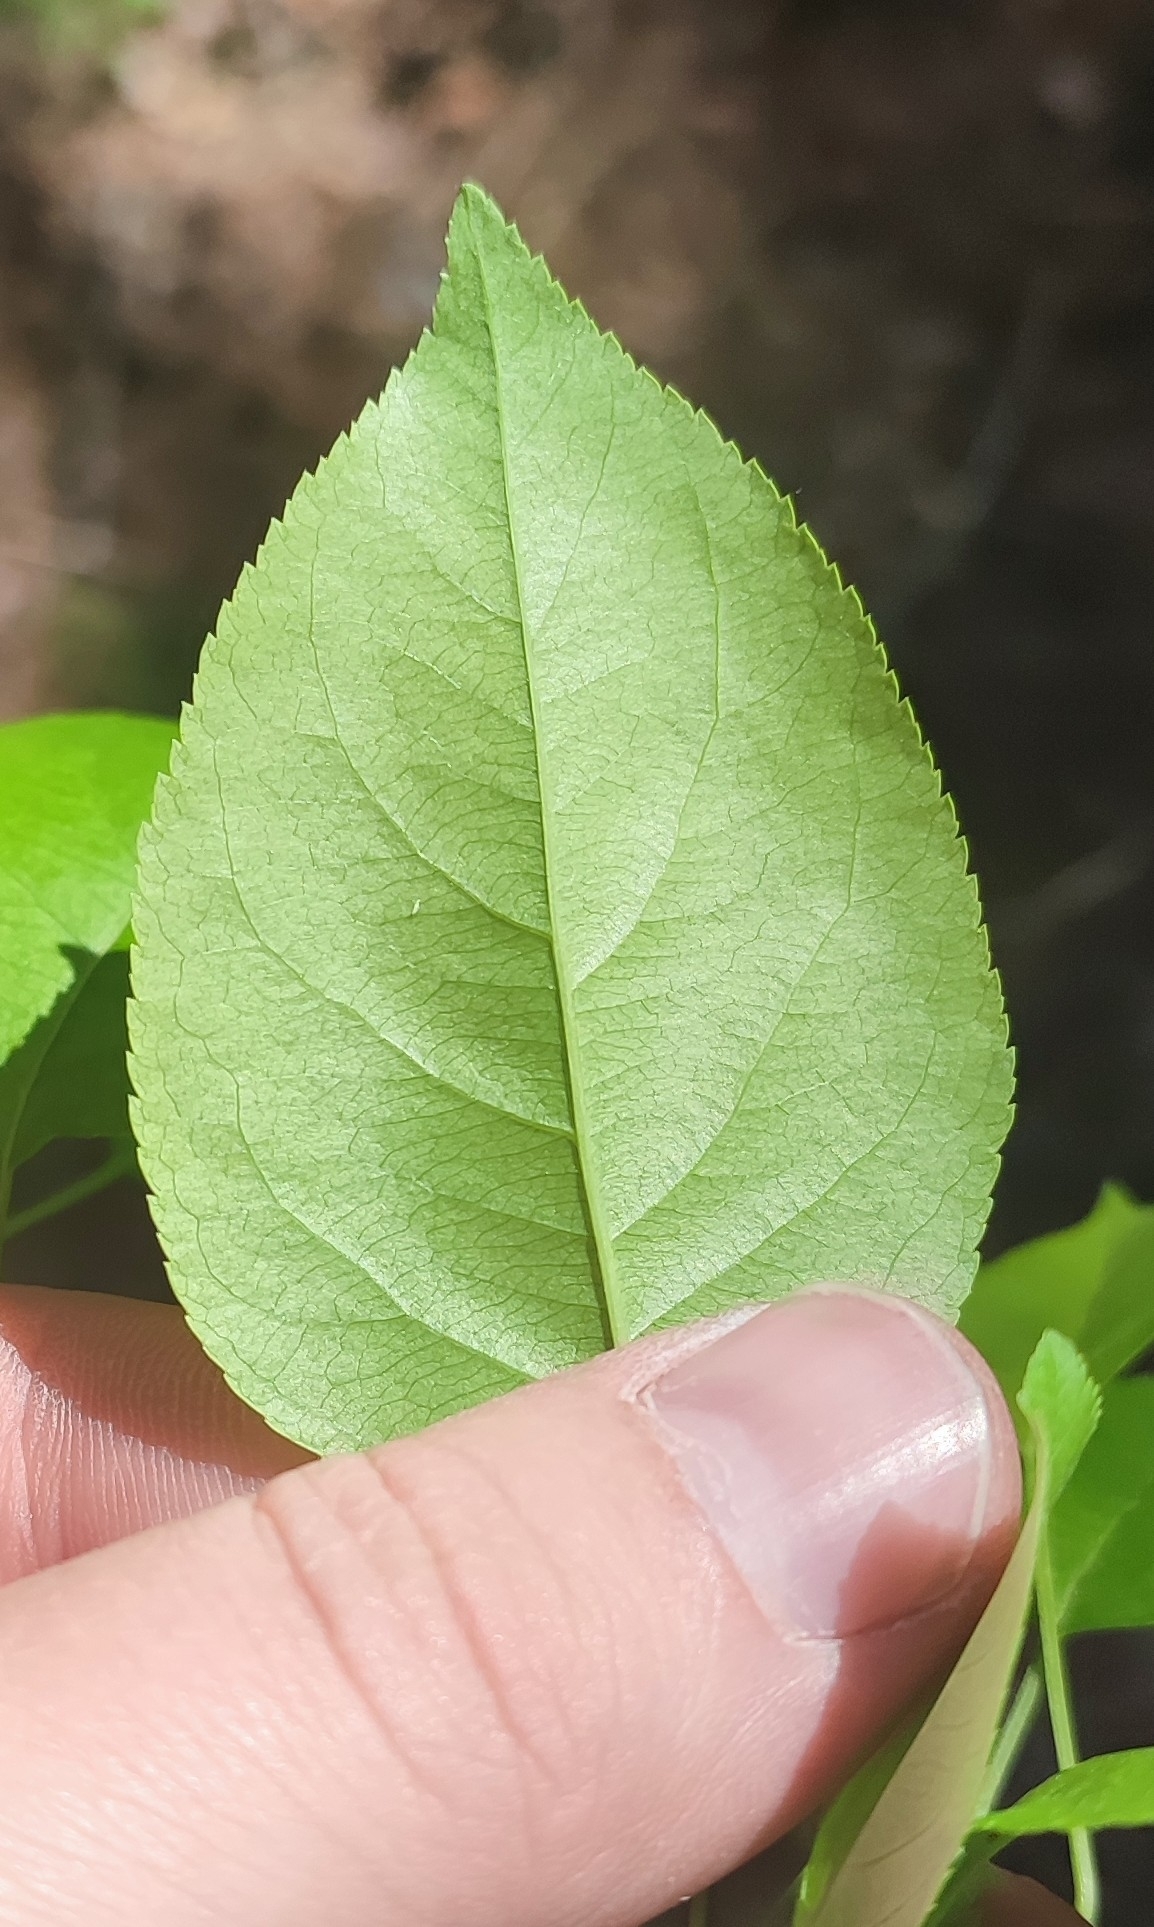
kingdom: Plantae
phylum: Tracheophyta
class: Magnoliopsida
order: Rosales
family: Rosaceae
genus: Malus
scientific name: Malus baccata
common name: Siberian crab
